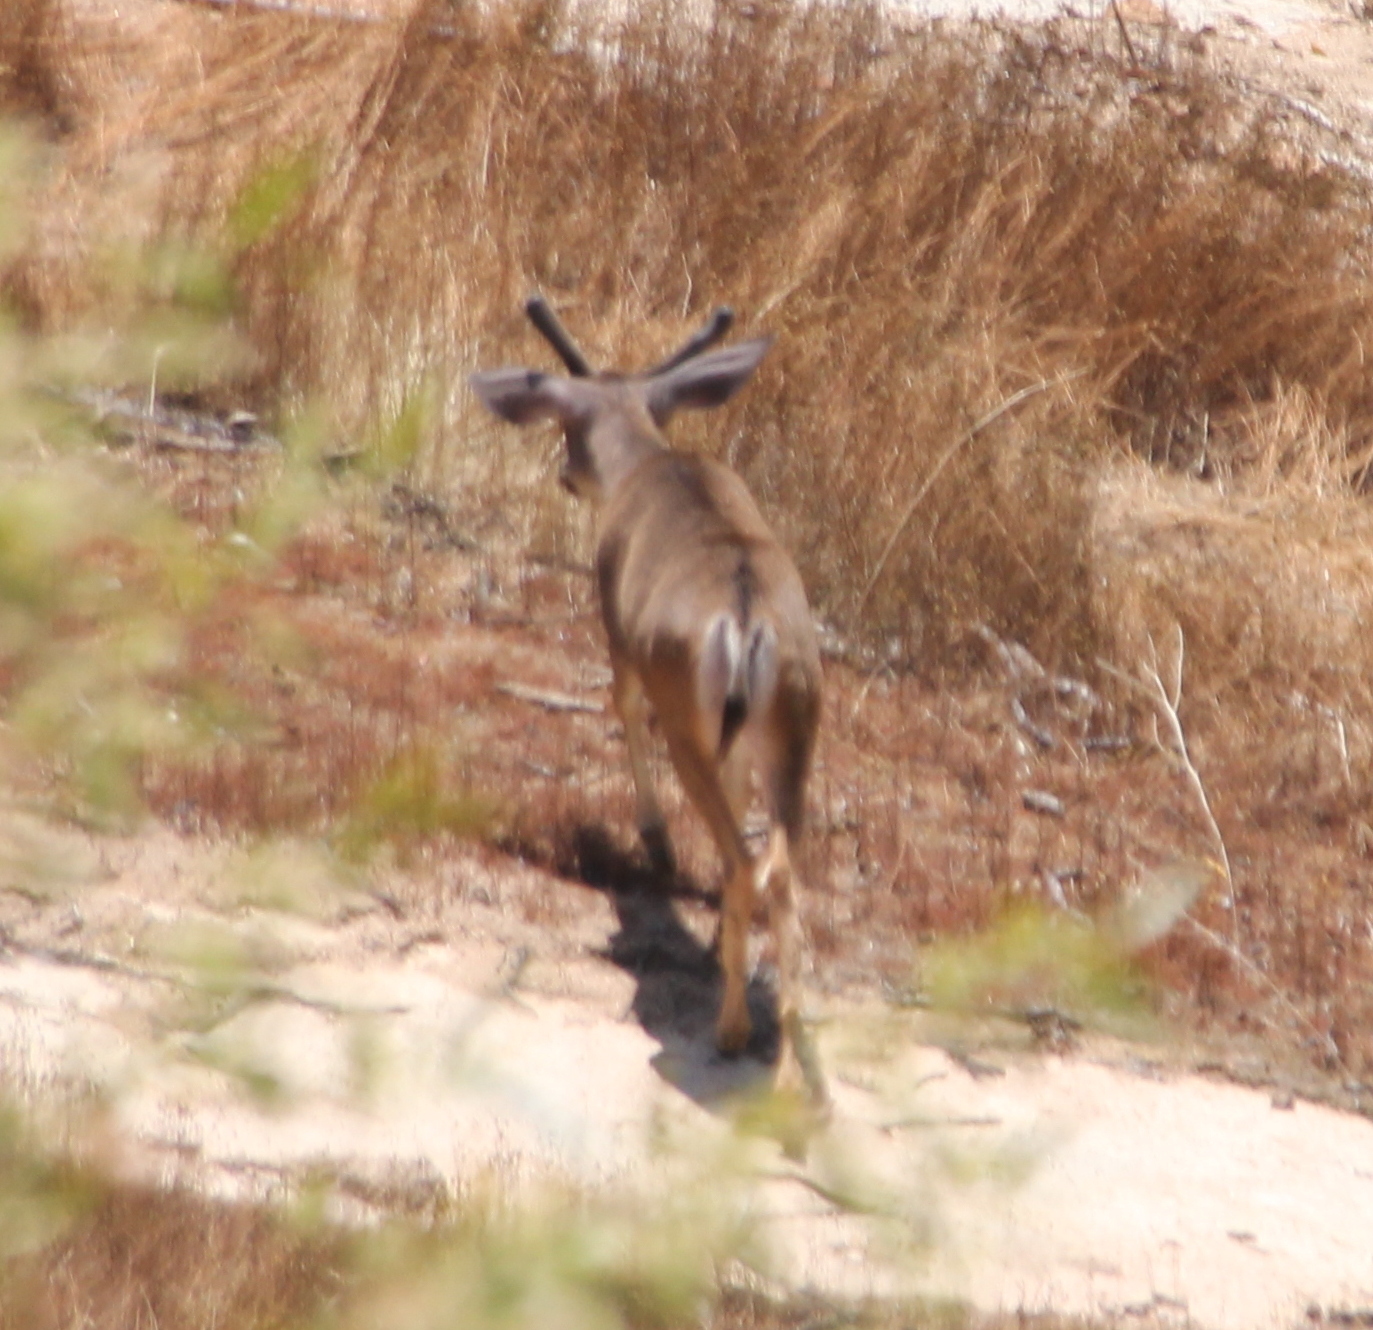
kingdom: Animalia
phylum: Chordata
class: Mammalia
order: Artiodactyla
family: Cervidae
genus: Odocoileus
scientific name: Odocoileus hemionus
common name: Mule deer
